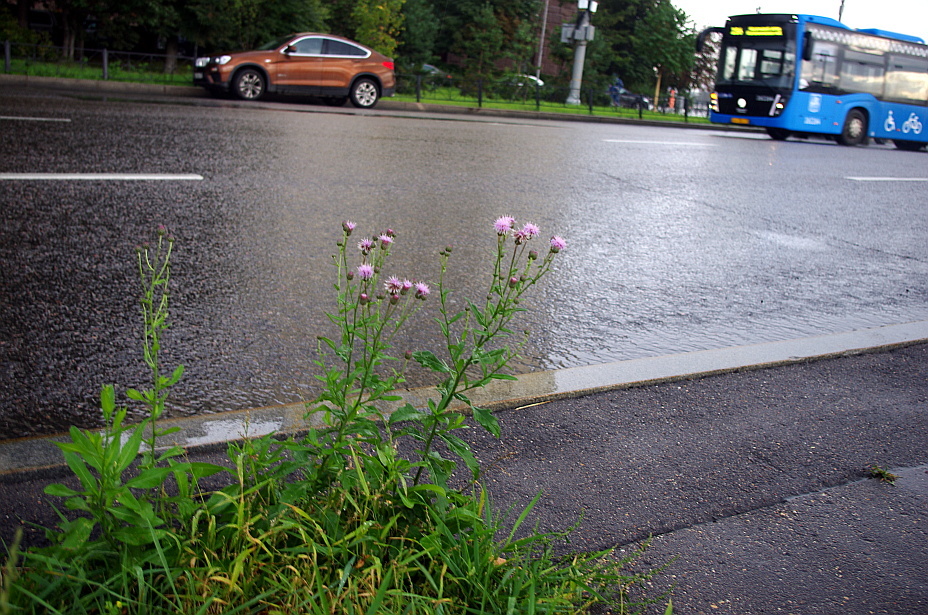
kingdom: Plantae
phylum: Tracheophyta
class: Magnoliopsida
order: Asterales
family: Asteraceae
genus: Cirsium
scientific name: Cirsium arvense
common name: Creeping thistle
